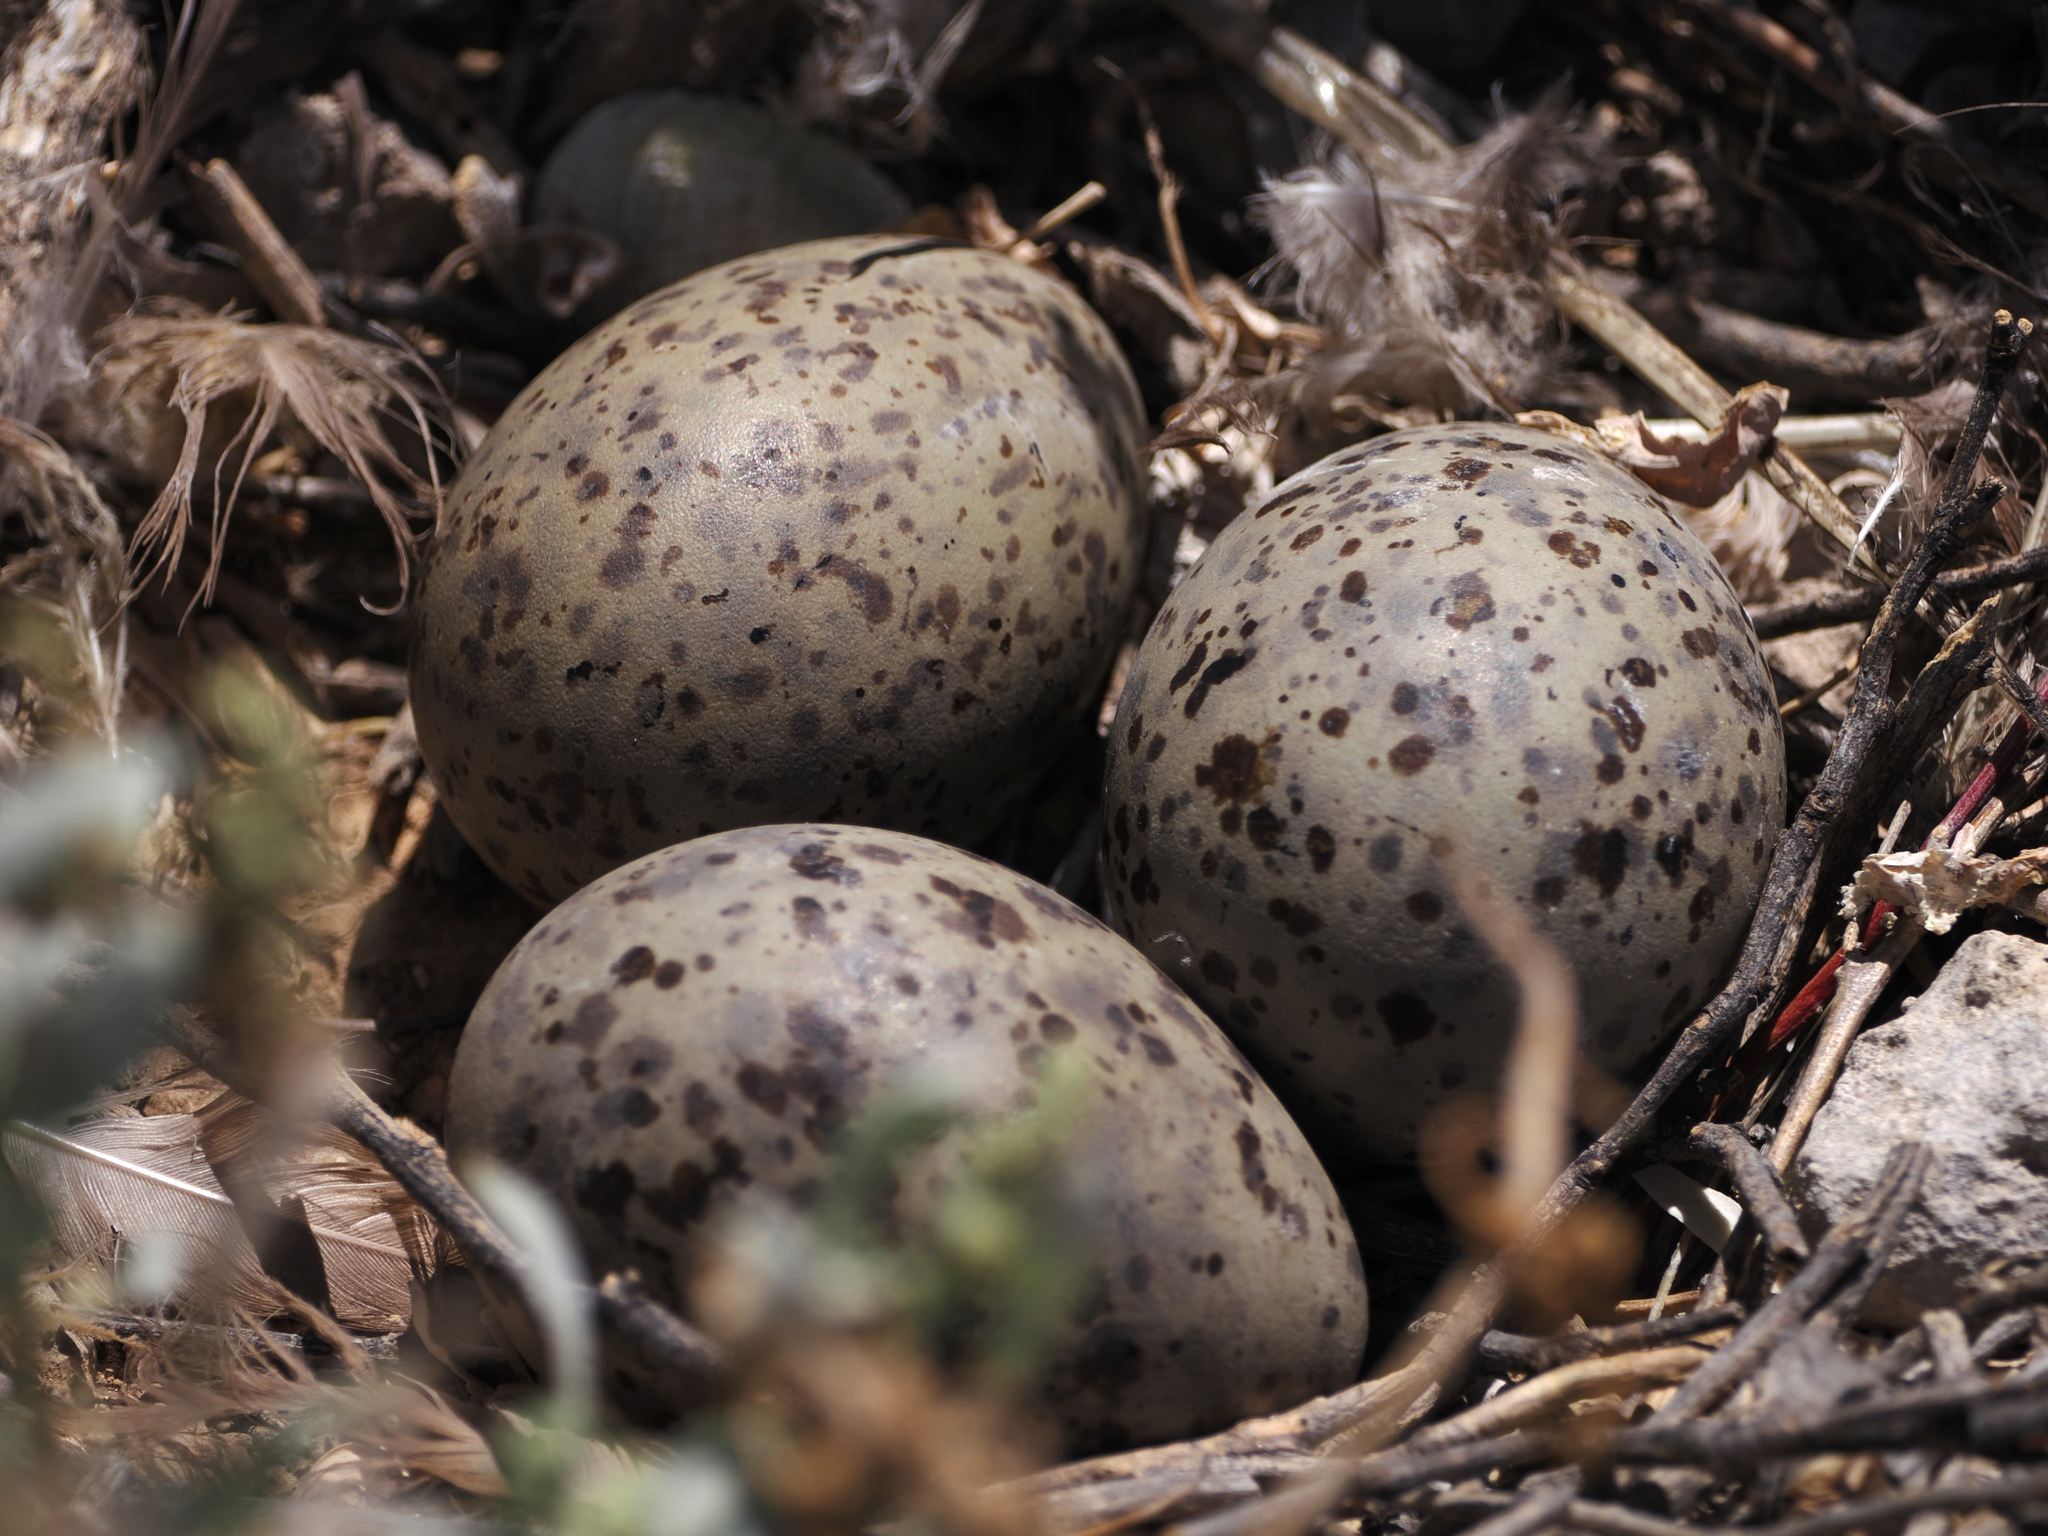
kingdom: Animalia
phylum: Chordata
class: Aves
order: Charadriiformes
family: Laridae
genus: Larus
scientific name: Larus heermanni
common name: Heermann's gull
